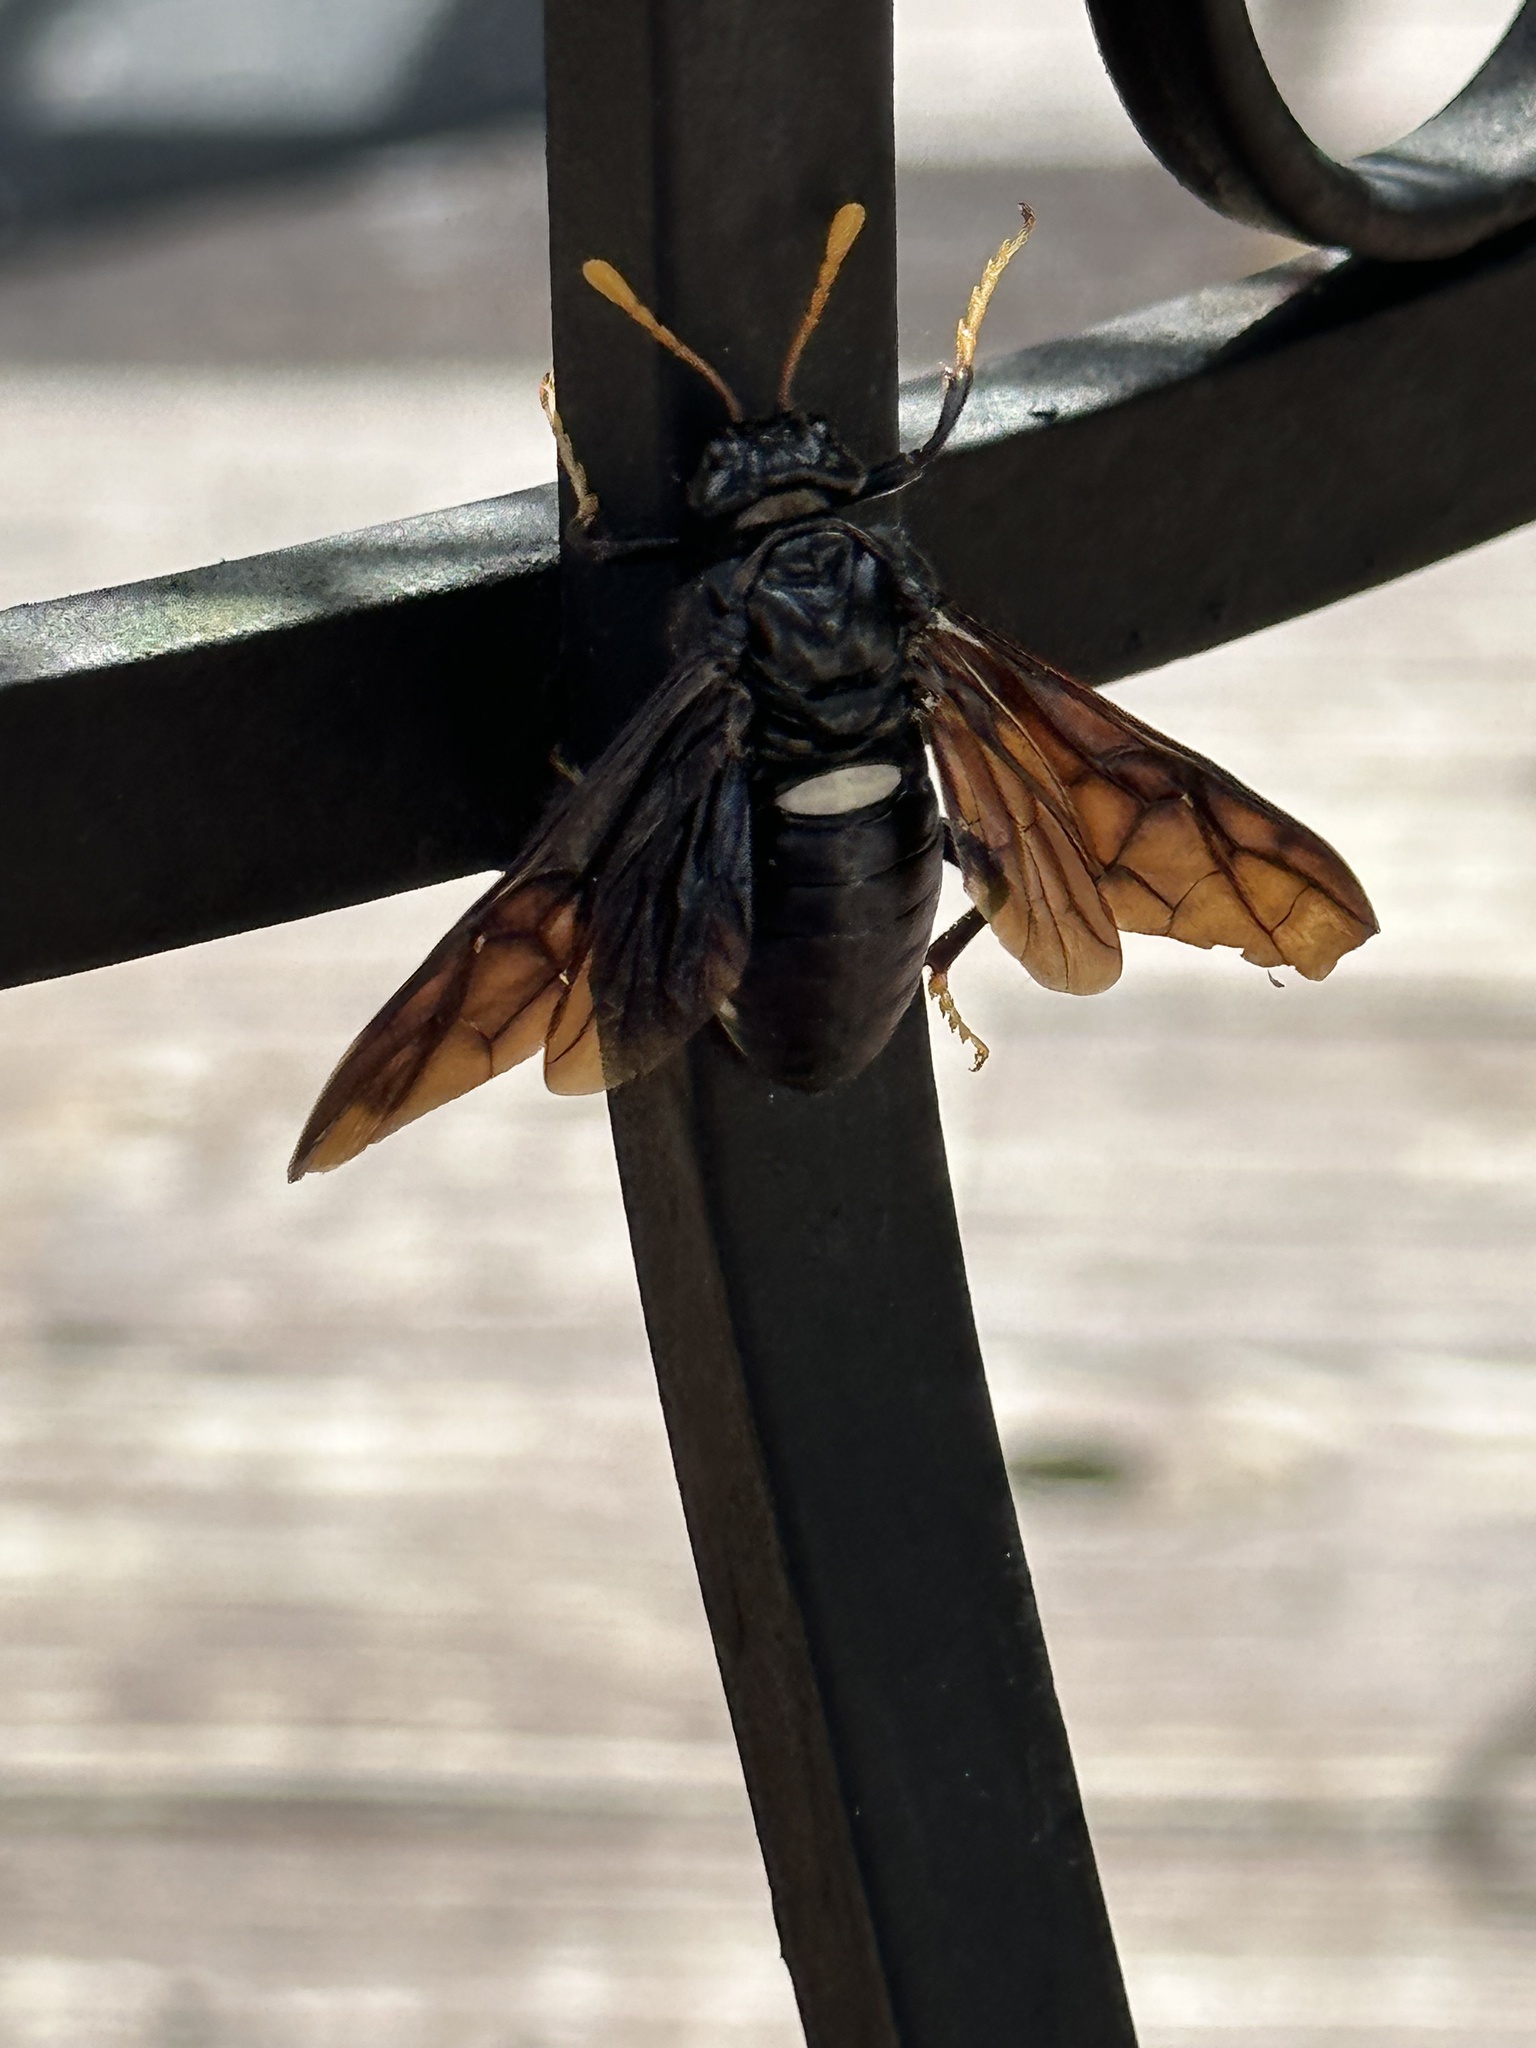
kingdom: Animalia
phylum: Arthropoda
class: Insecta
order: Hymenoptera
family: Cimbicidae
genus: Cimbex
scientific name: Cimbex americana
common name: Elm sawfly
